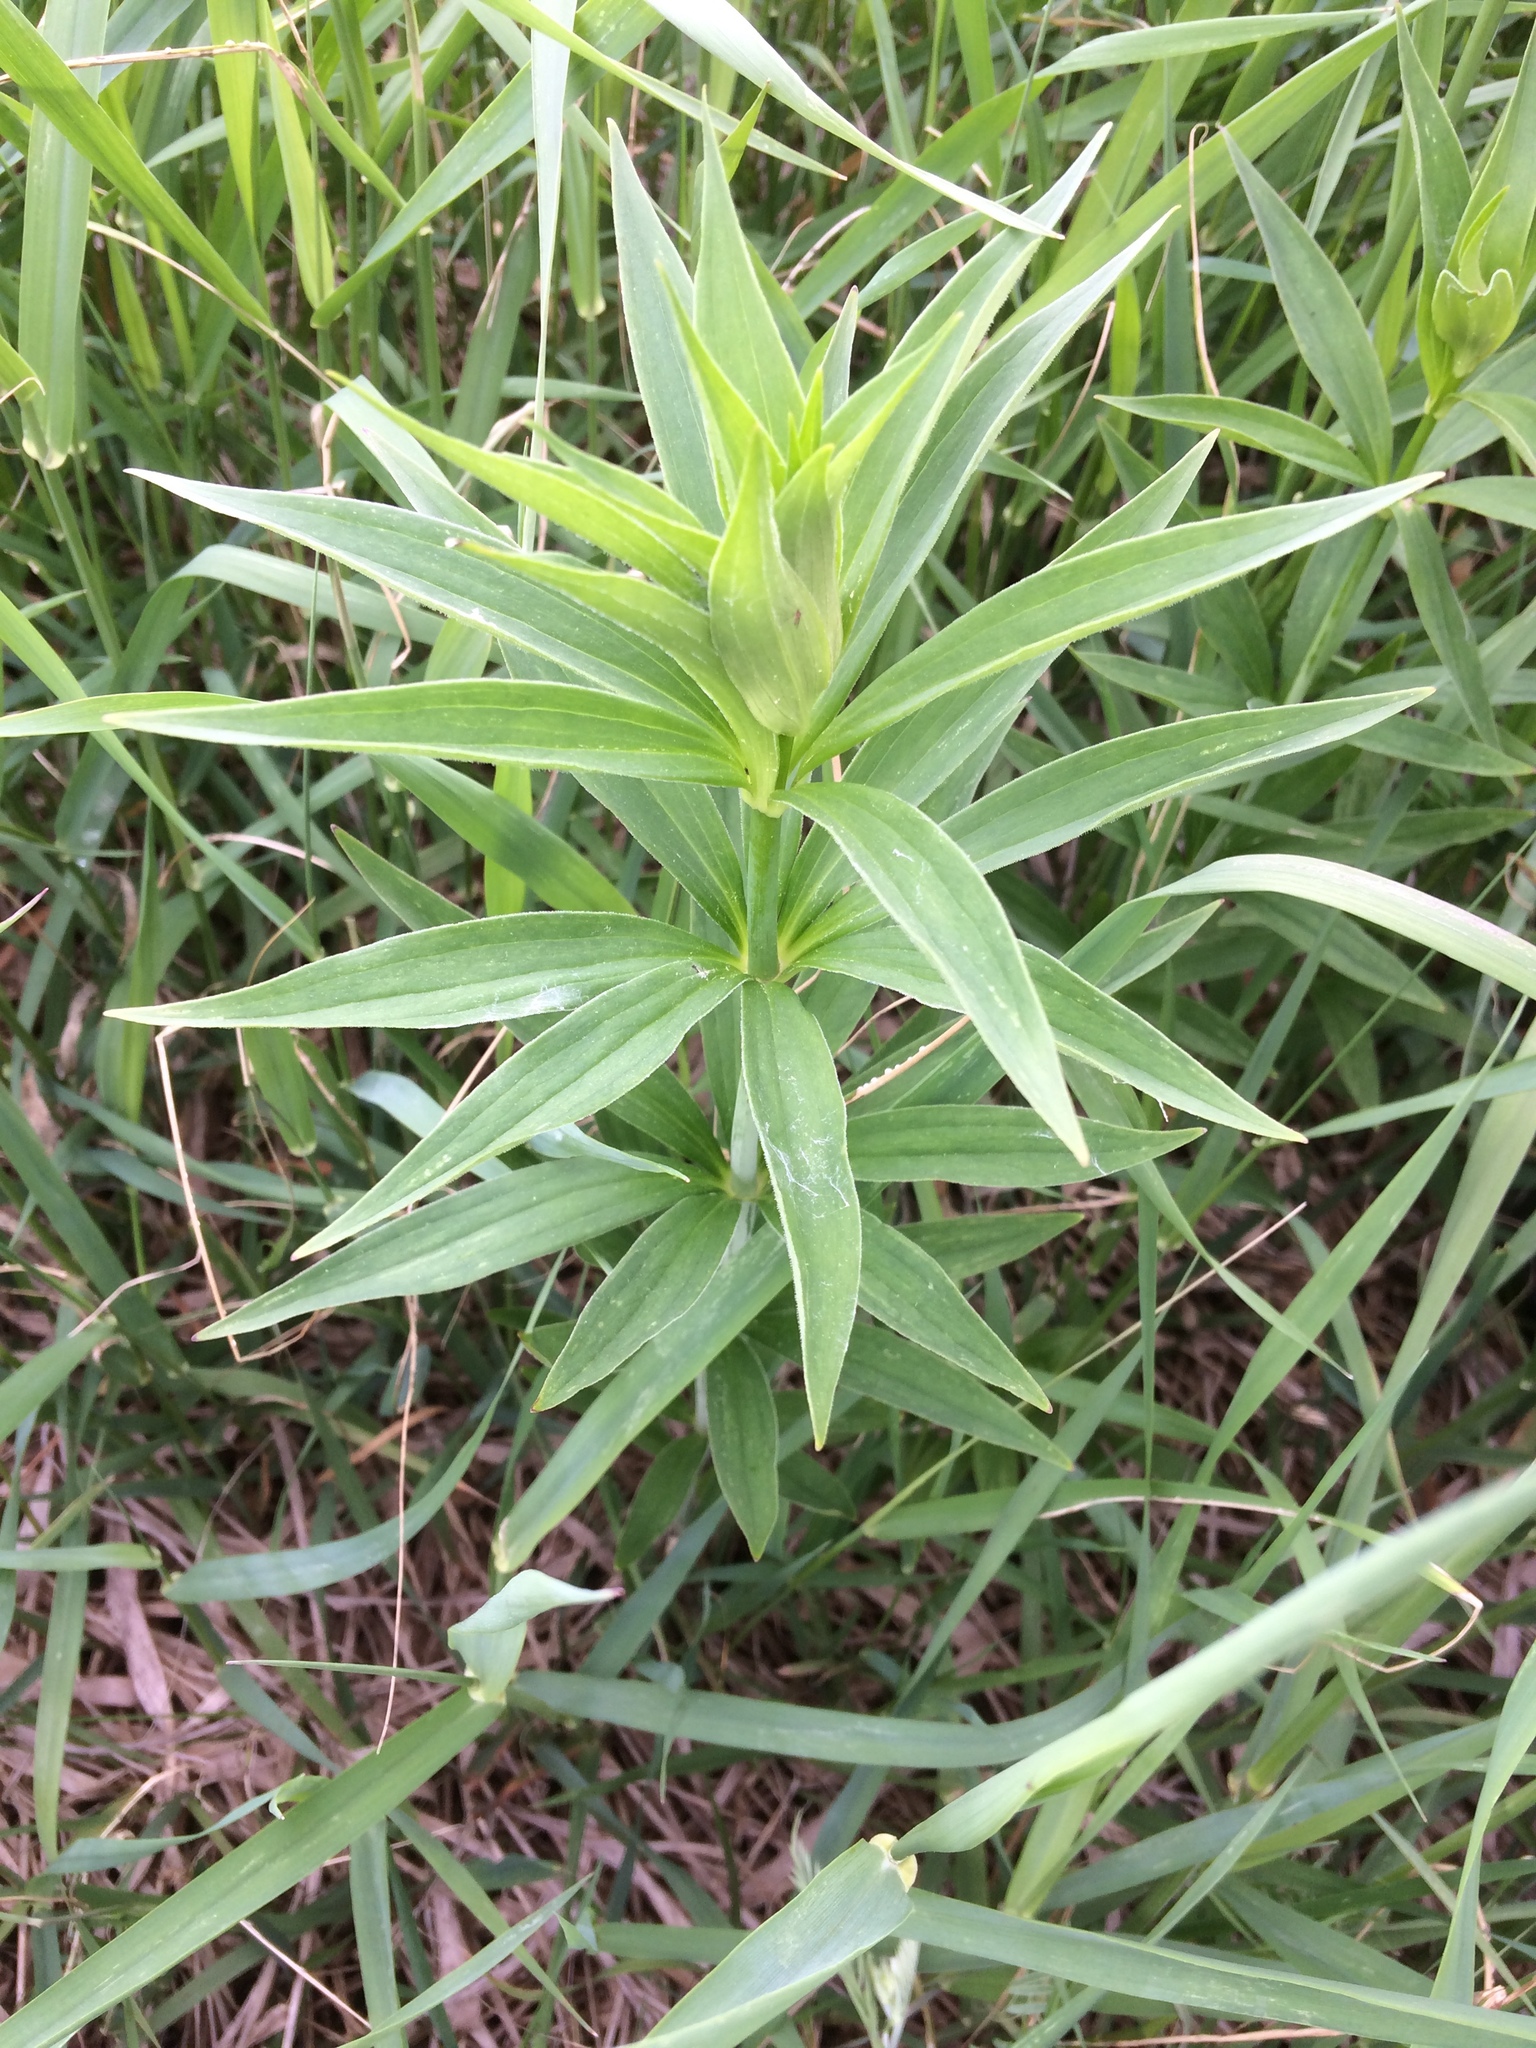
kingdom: Plantae
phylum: Tracheophyta
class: Liliopsida
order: Liliales
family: Liliaceae
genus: Lilium
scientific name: Lilium
